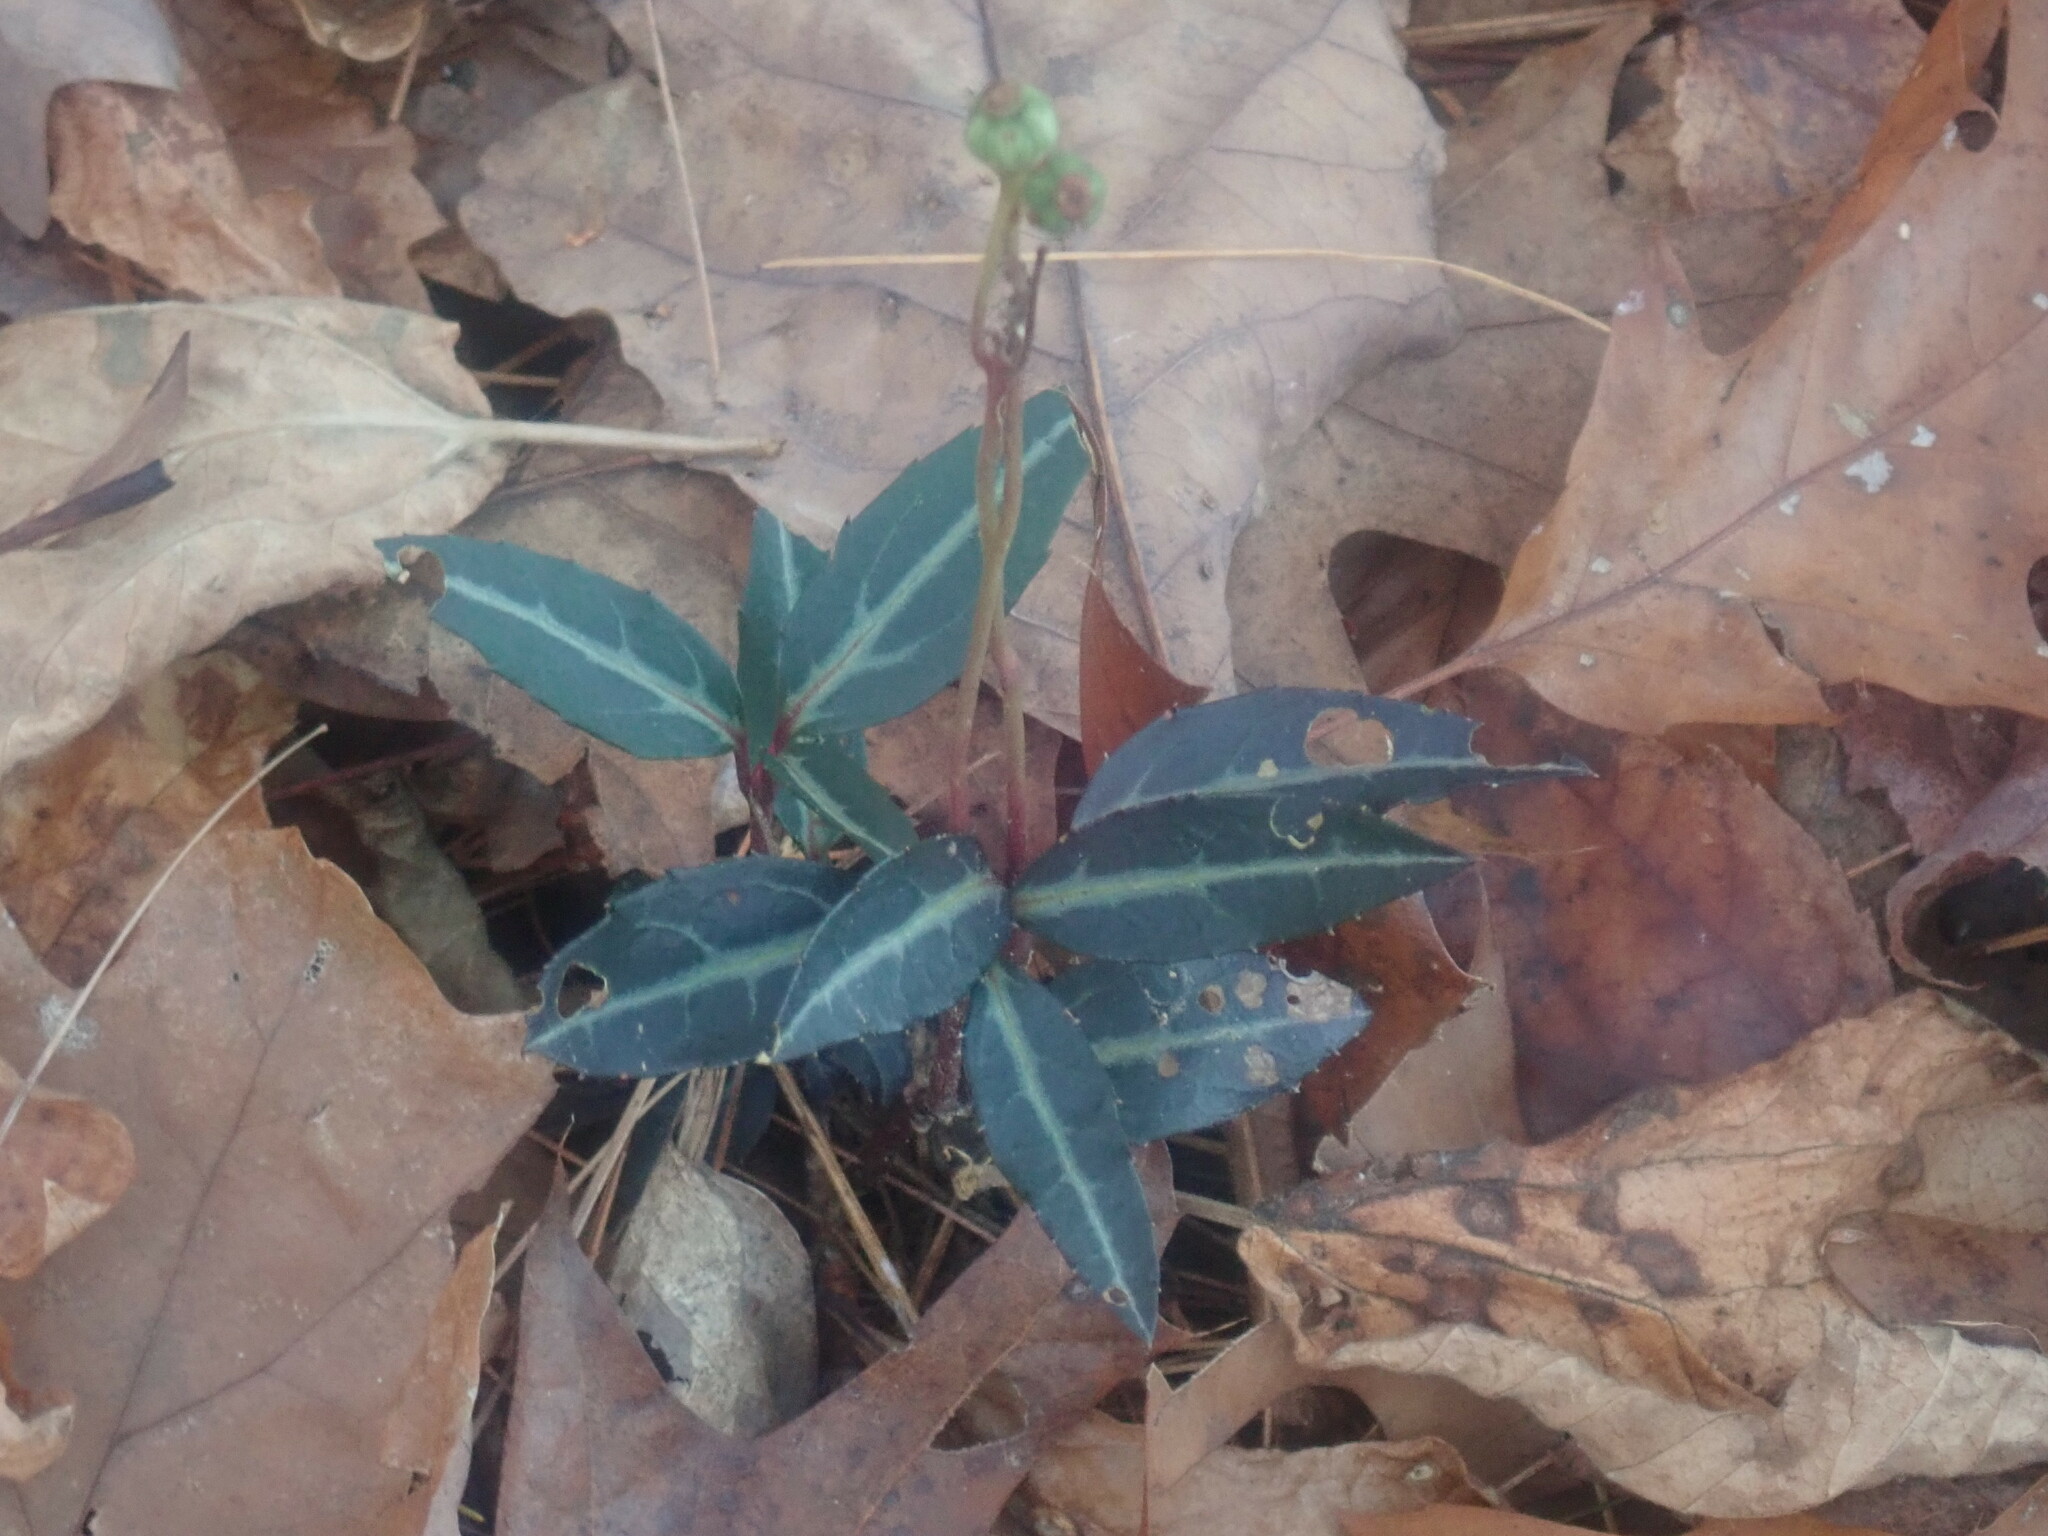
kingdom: Plantae
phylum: Tracheophyta
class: Magnoliopsida
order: Ericales
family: Ericaceae
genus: Chimaphila
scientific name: Chimaphila maculata
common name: Spotted pipsissewa
